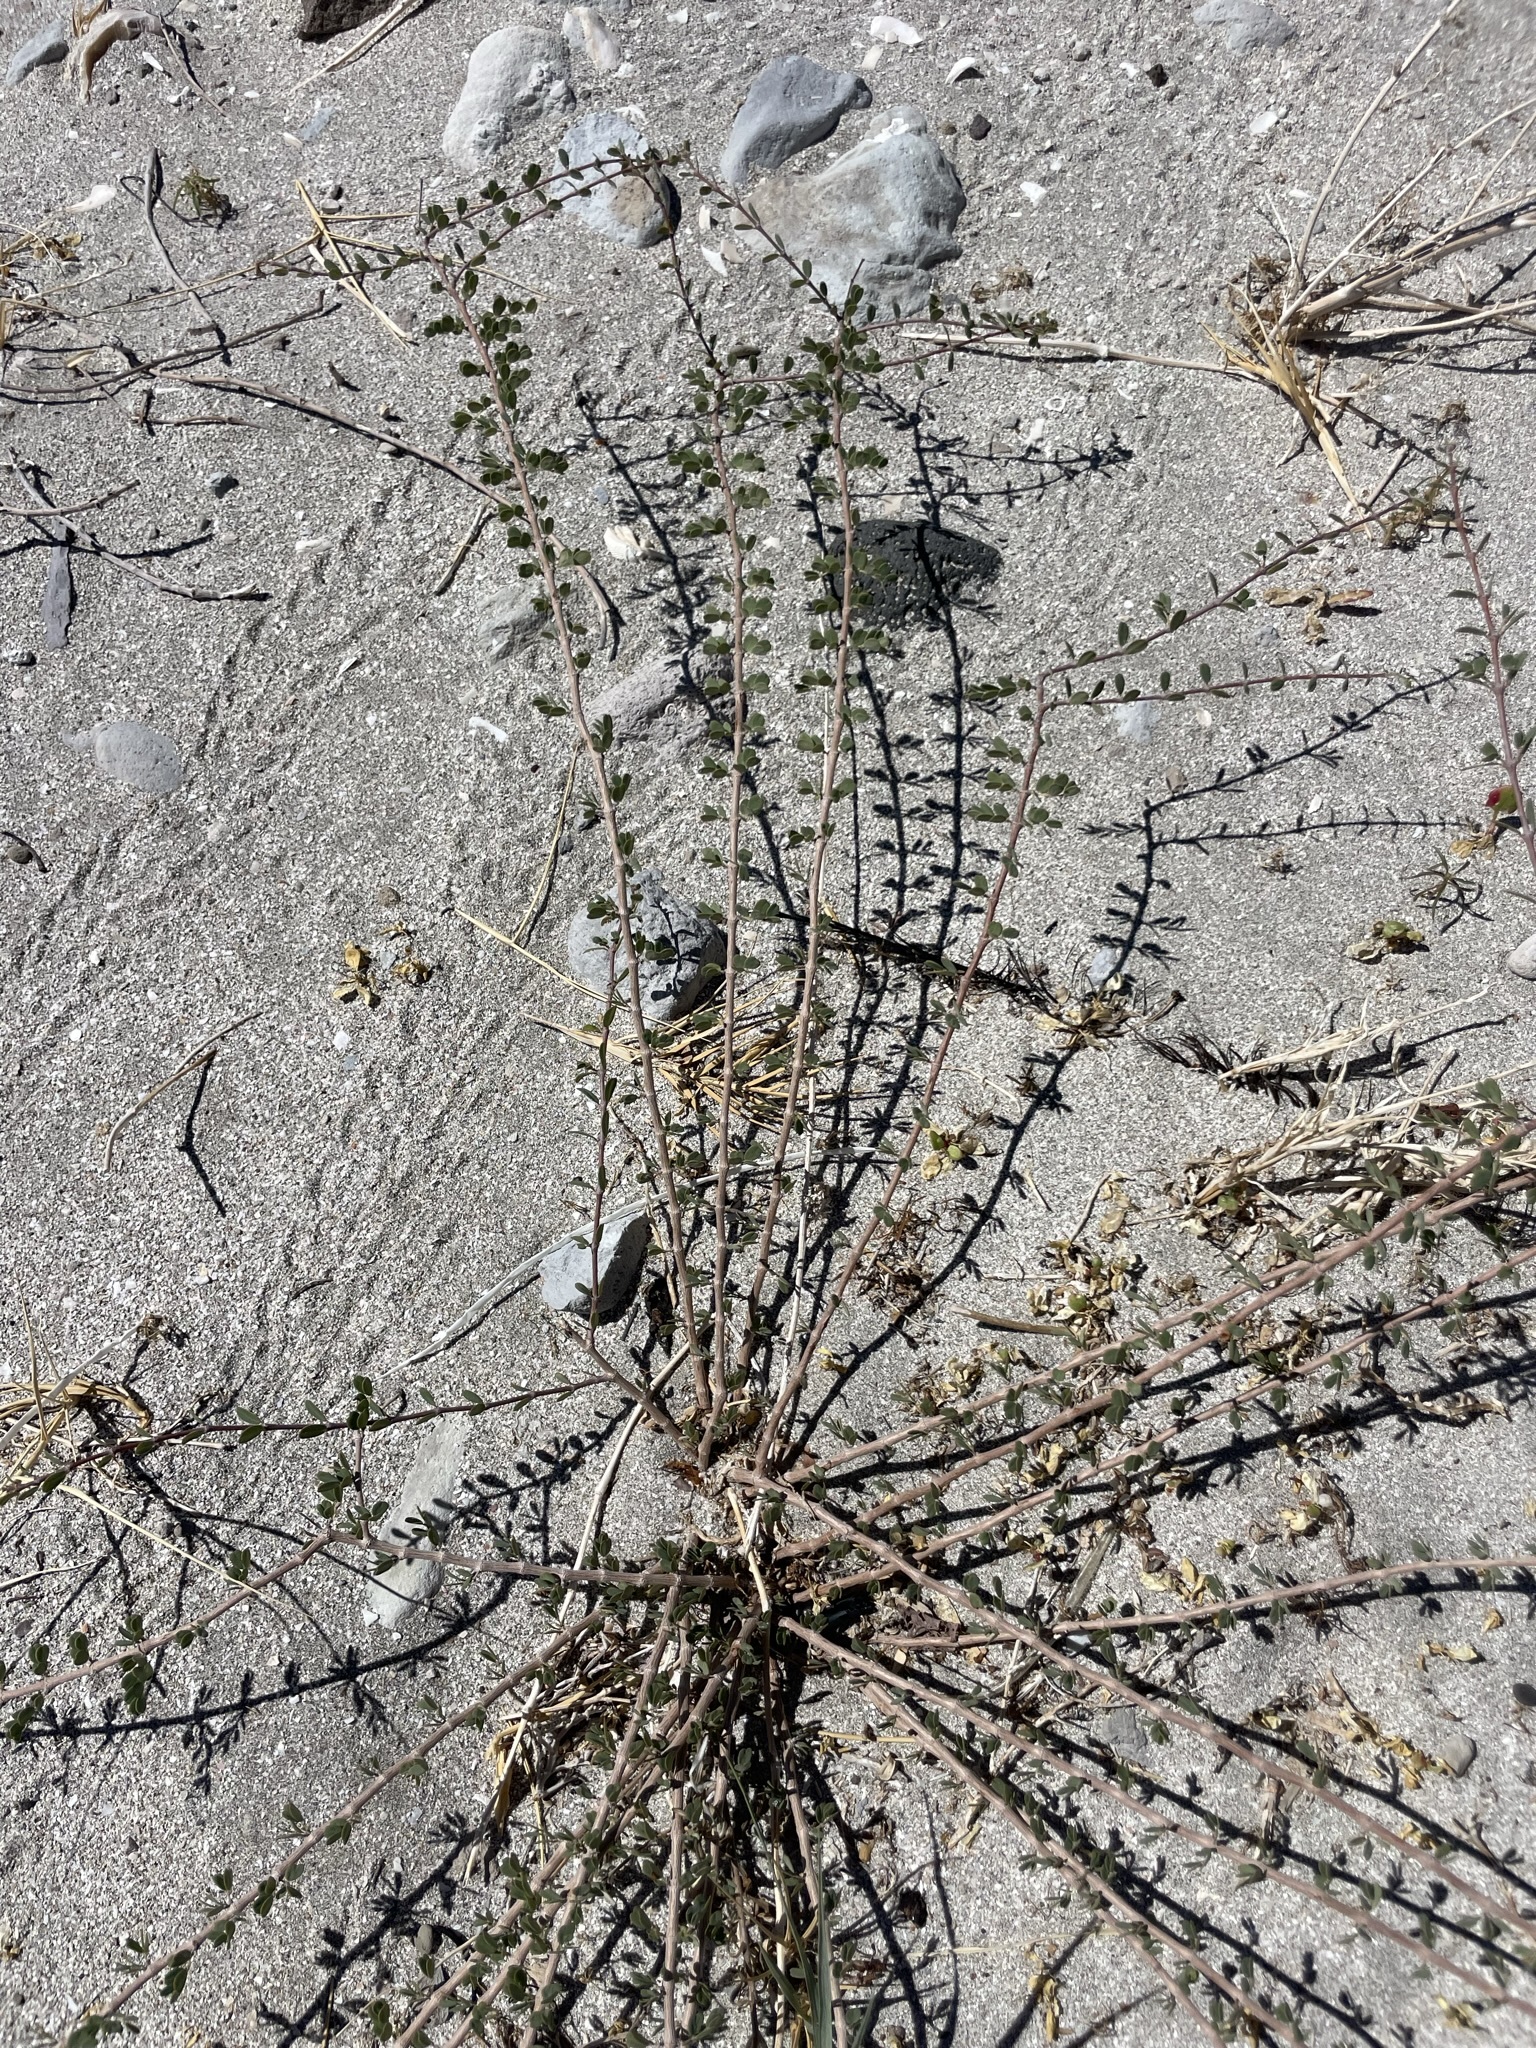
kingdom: Plantae
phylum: Tracheophyta
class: Magnoliopsida
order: Malpighiales
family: Euphorbiaceae
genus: Euphorbia
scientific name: Euphorbia magdalenae
